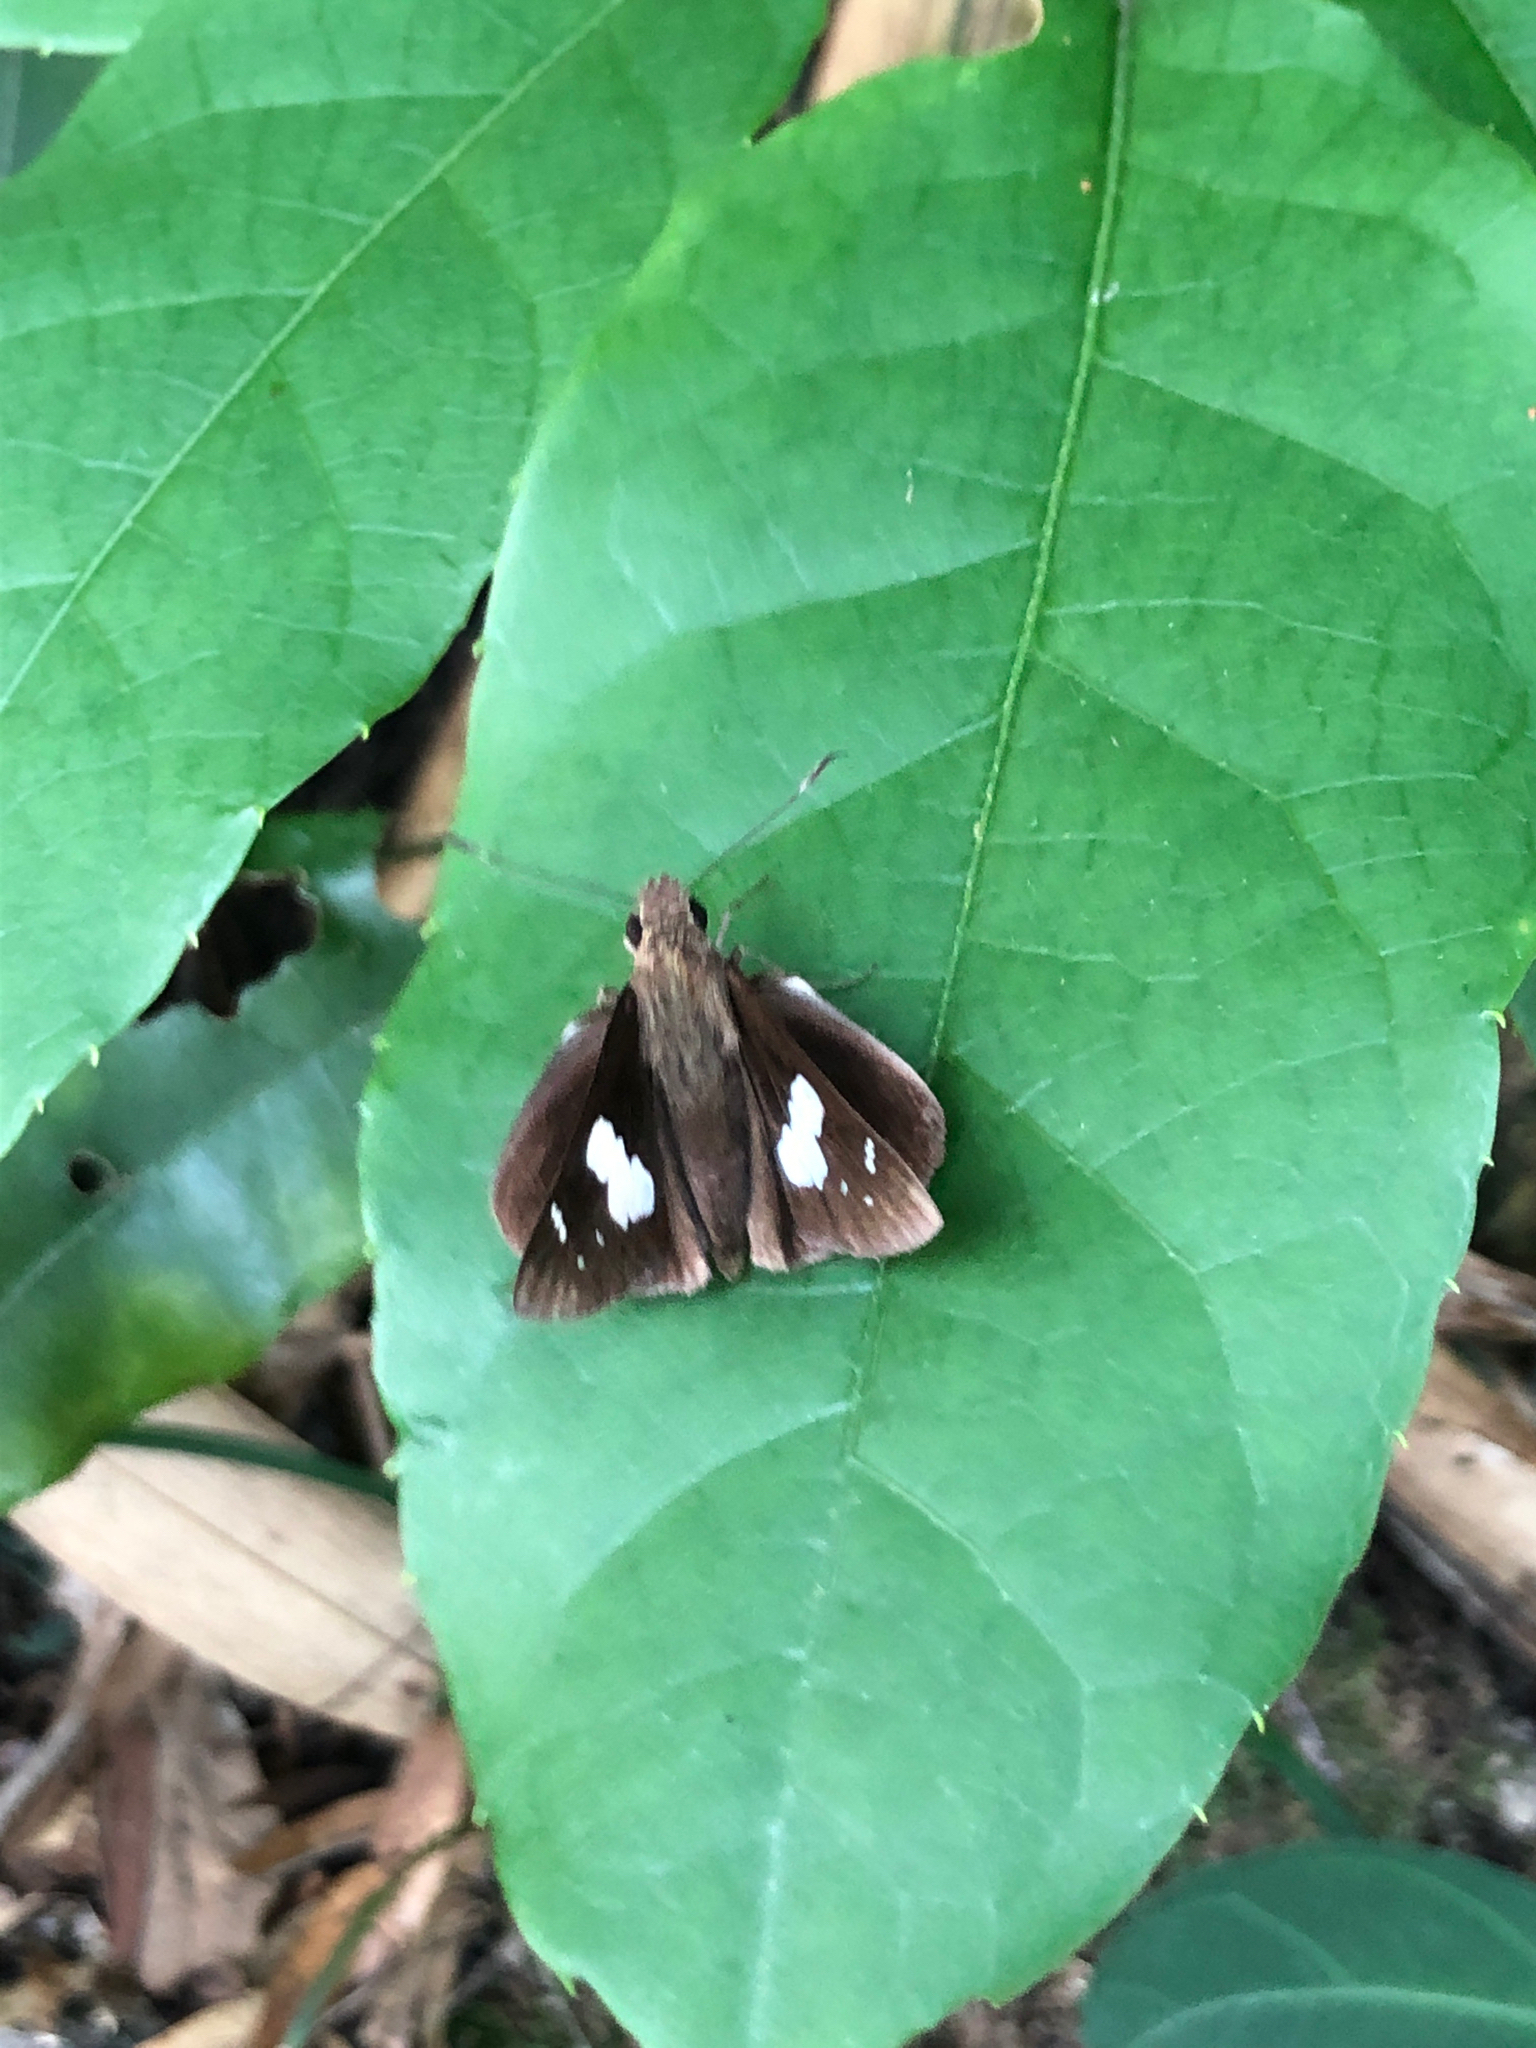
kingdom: Animalia
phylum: Arthropoda
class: Insecta
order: Lepidoptera
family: Hesperiidae
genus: Notocrypta
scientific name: Notocrypta curvifascia
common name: Restricted demon
